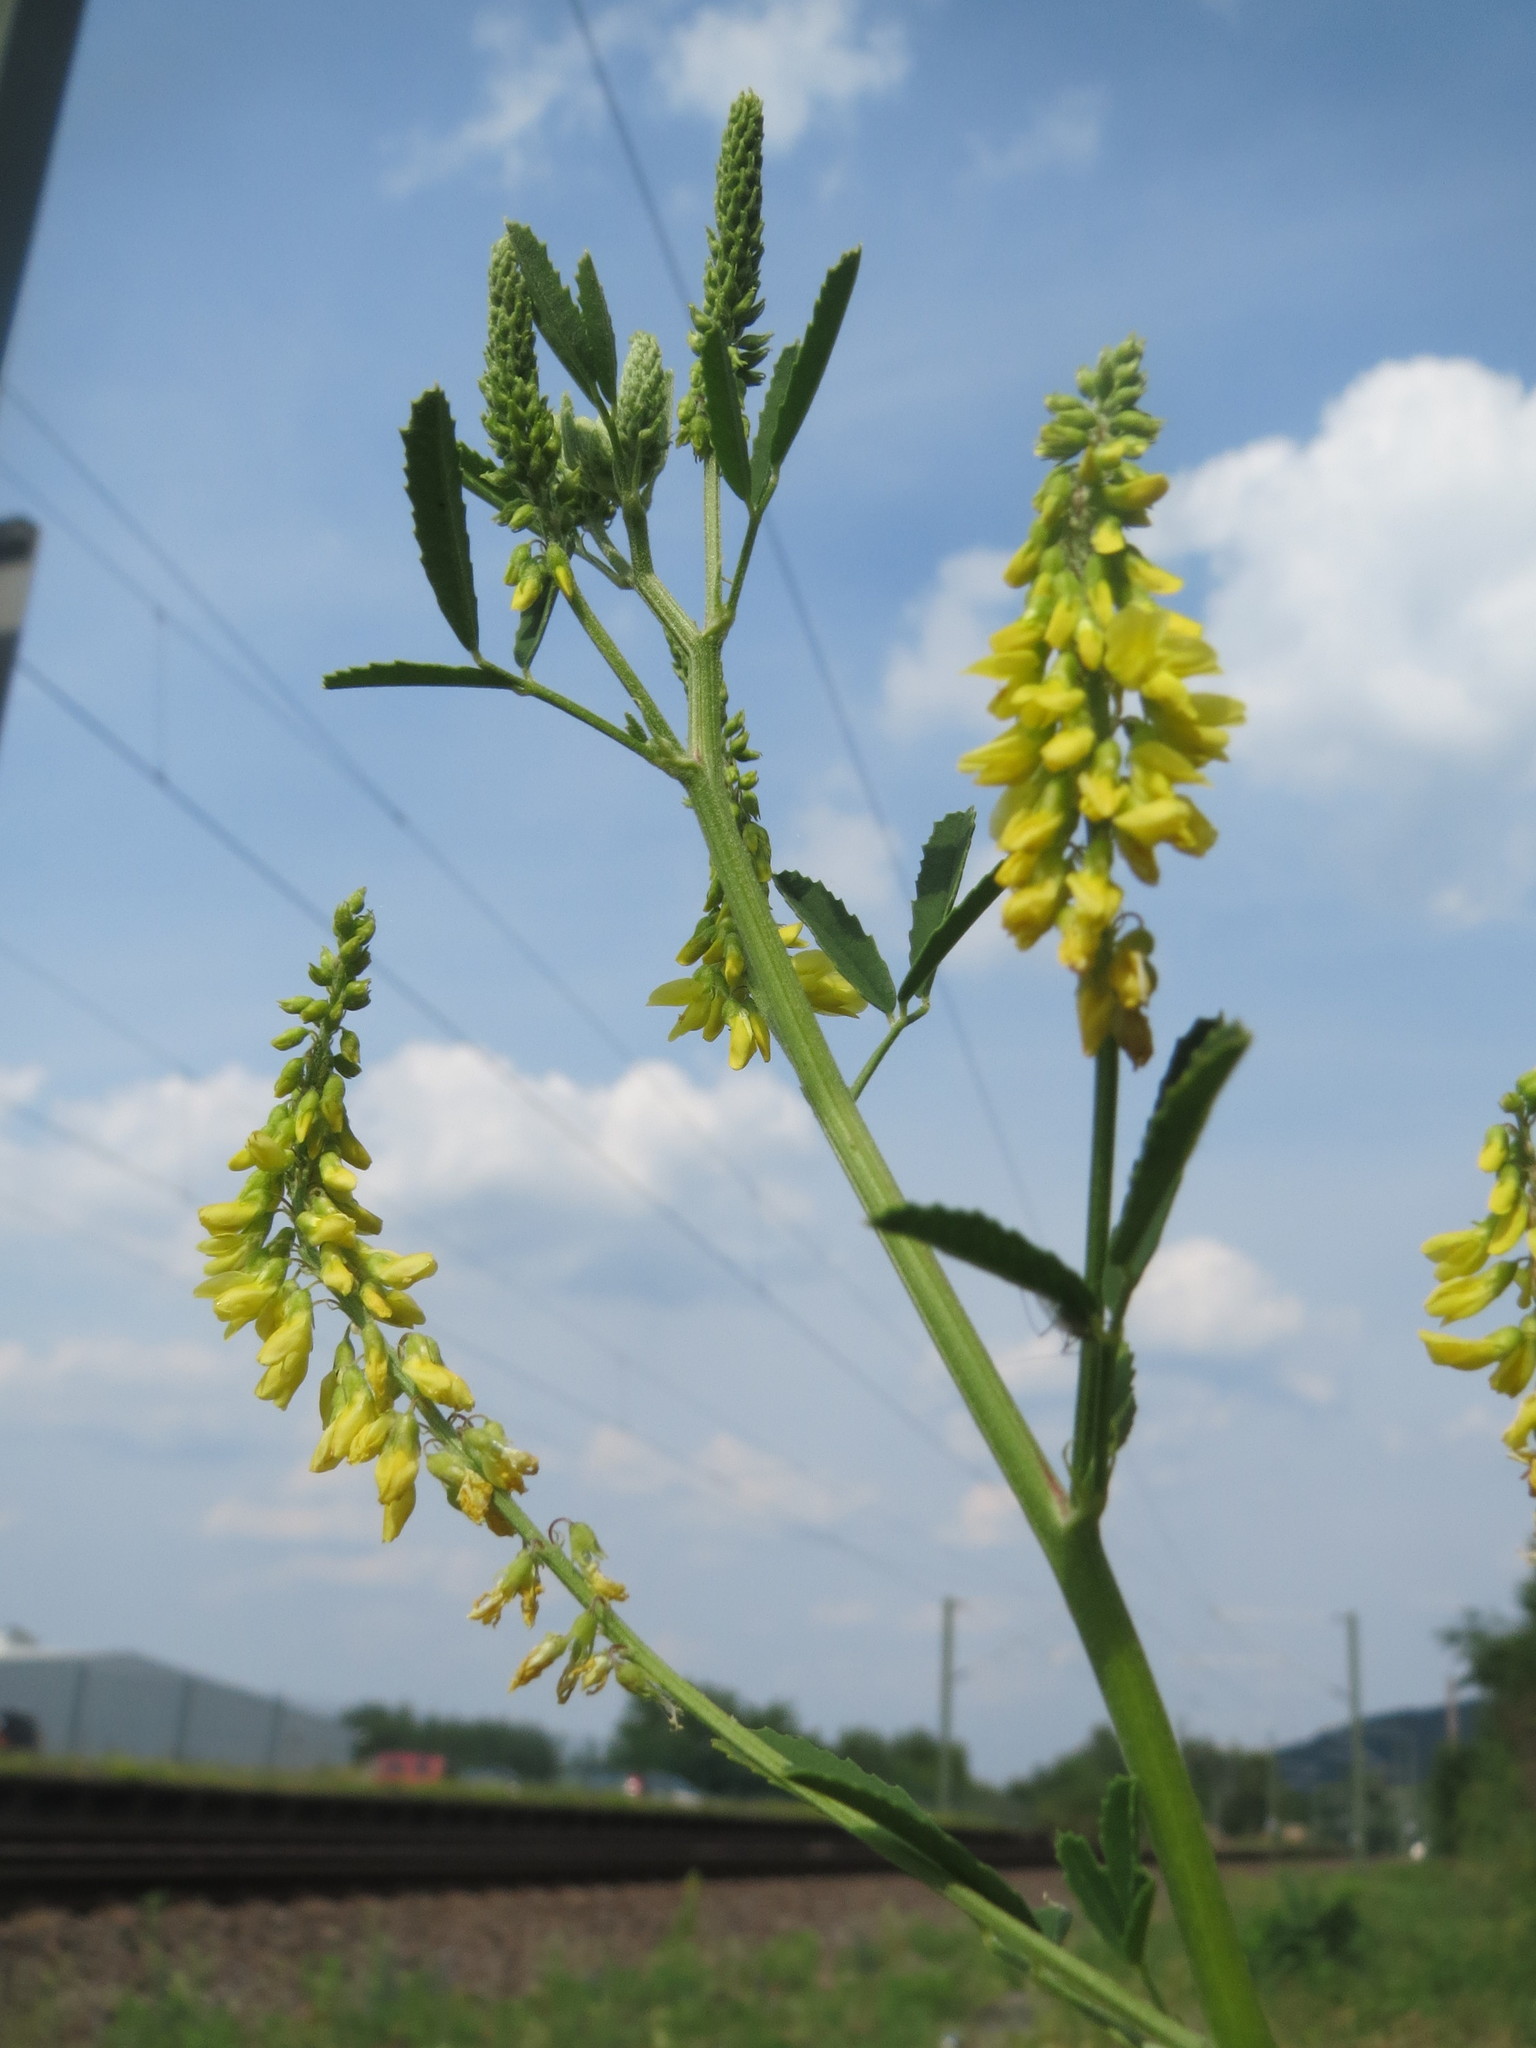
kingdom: Plantae
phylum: Tracheophyta
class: Magnoliopsida
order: Fabales
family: Fabaceae
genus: Melilotus
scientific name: Melilotus officinalis
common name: Sweetclover
